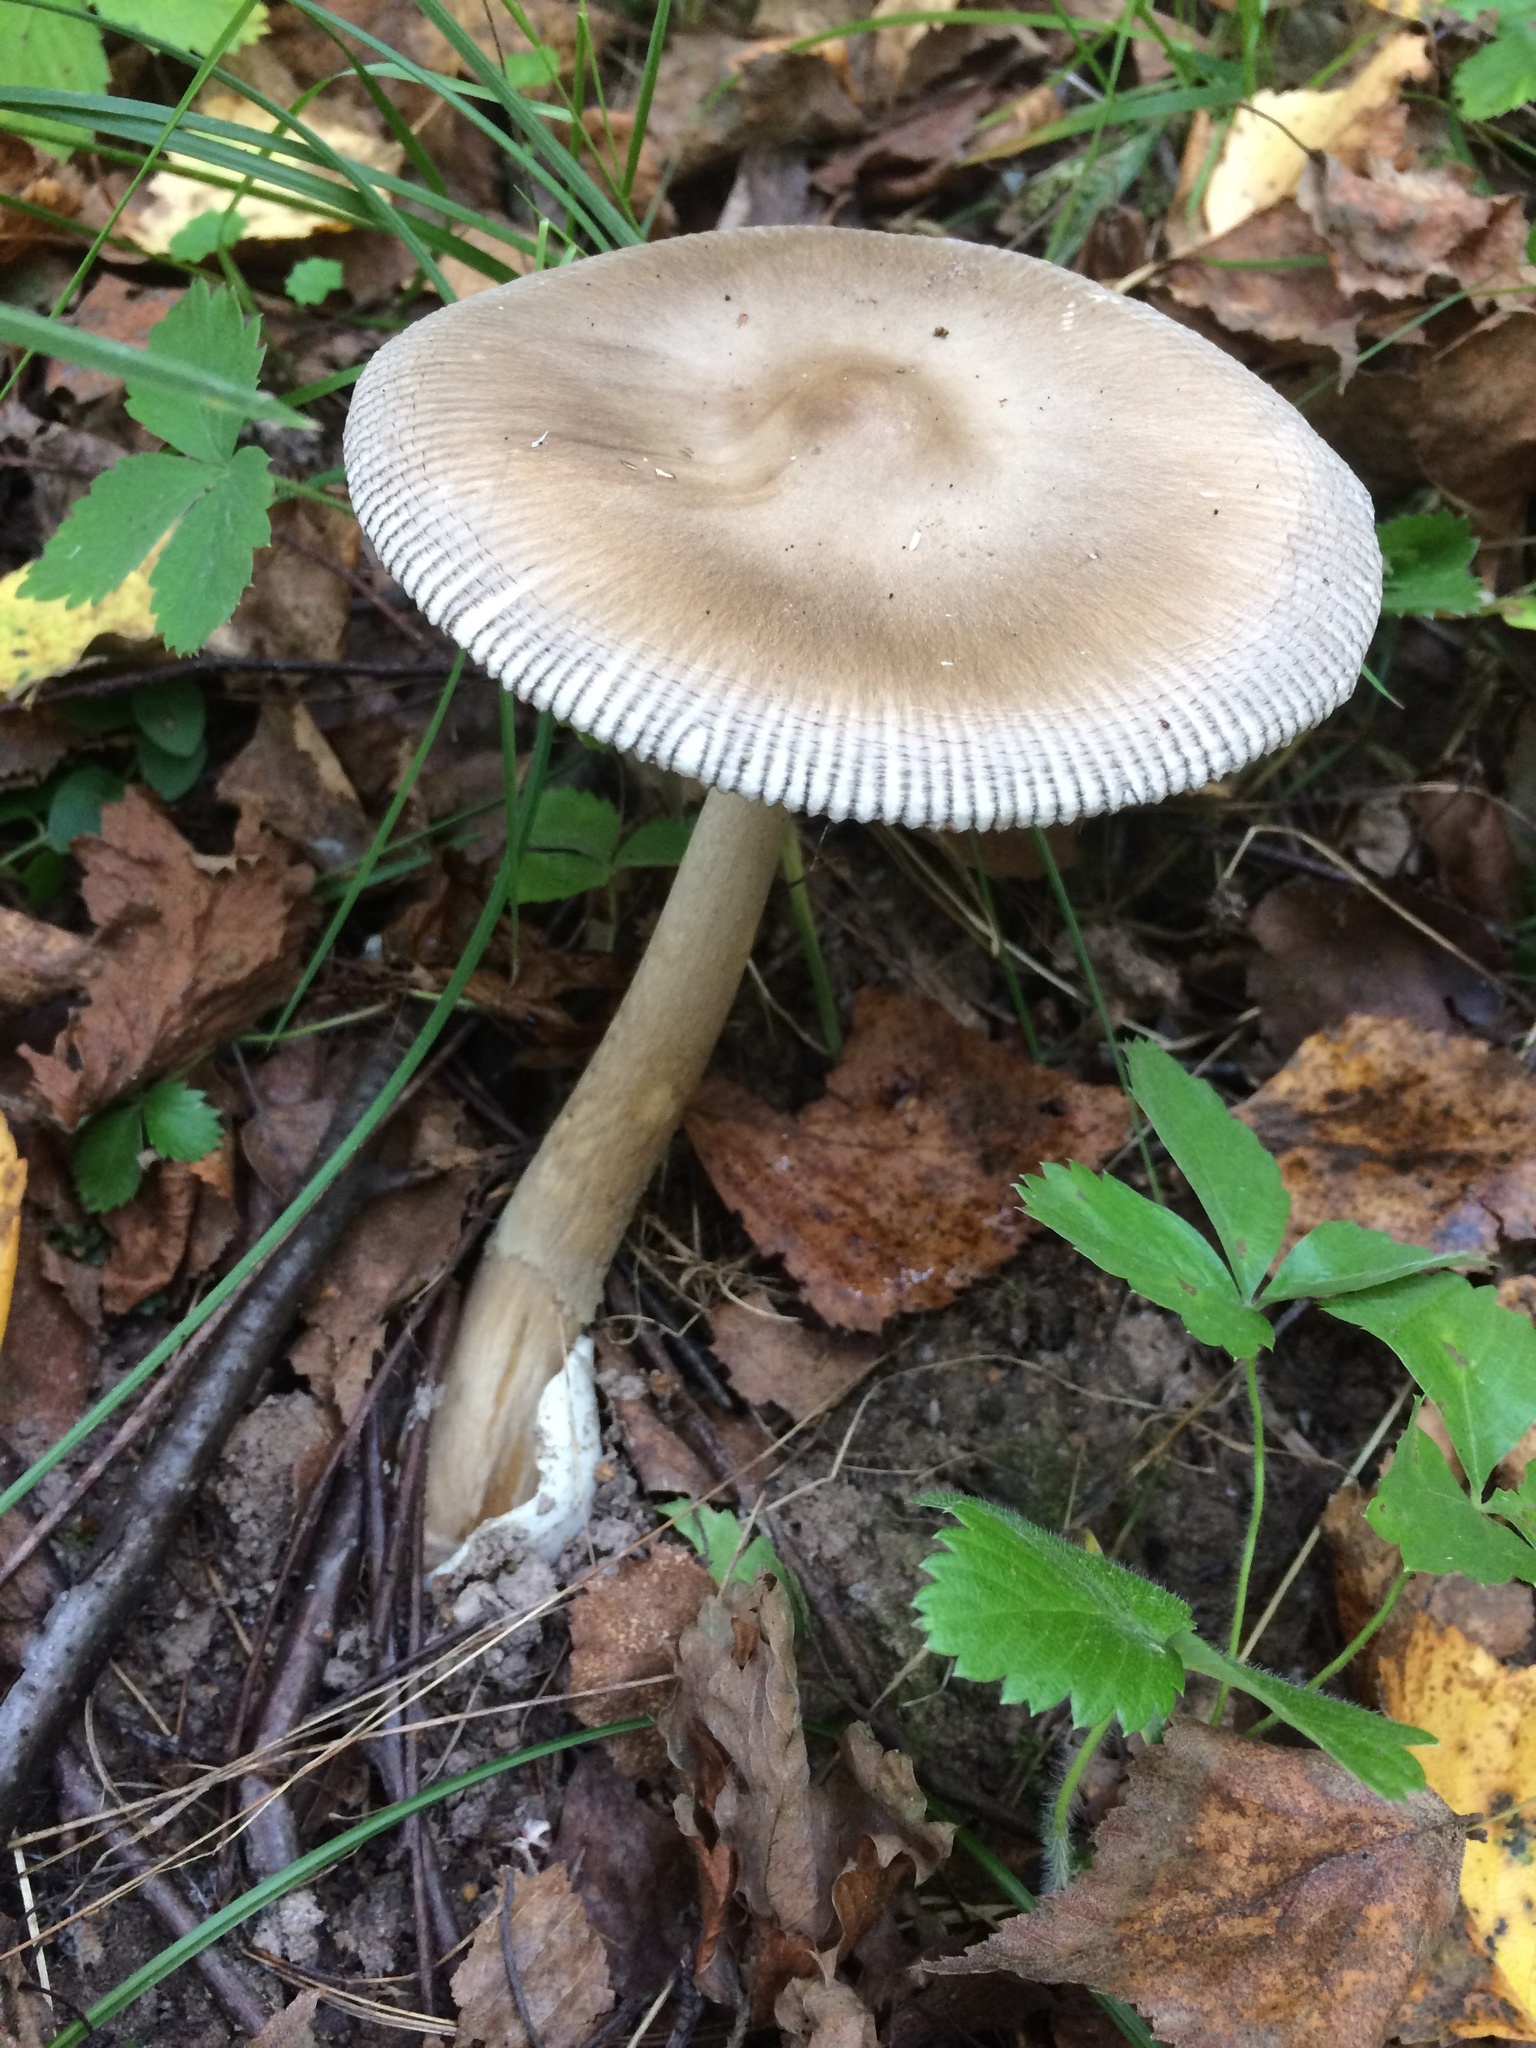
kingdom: Fungi
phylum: Basidiomycota
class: Agaricomycetes
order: Agaricales
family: Amanitaceae
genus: Amanita
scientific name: Amanita vaginata
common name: Grisette
